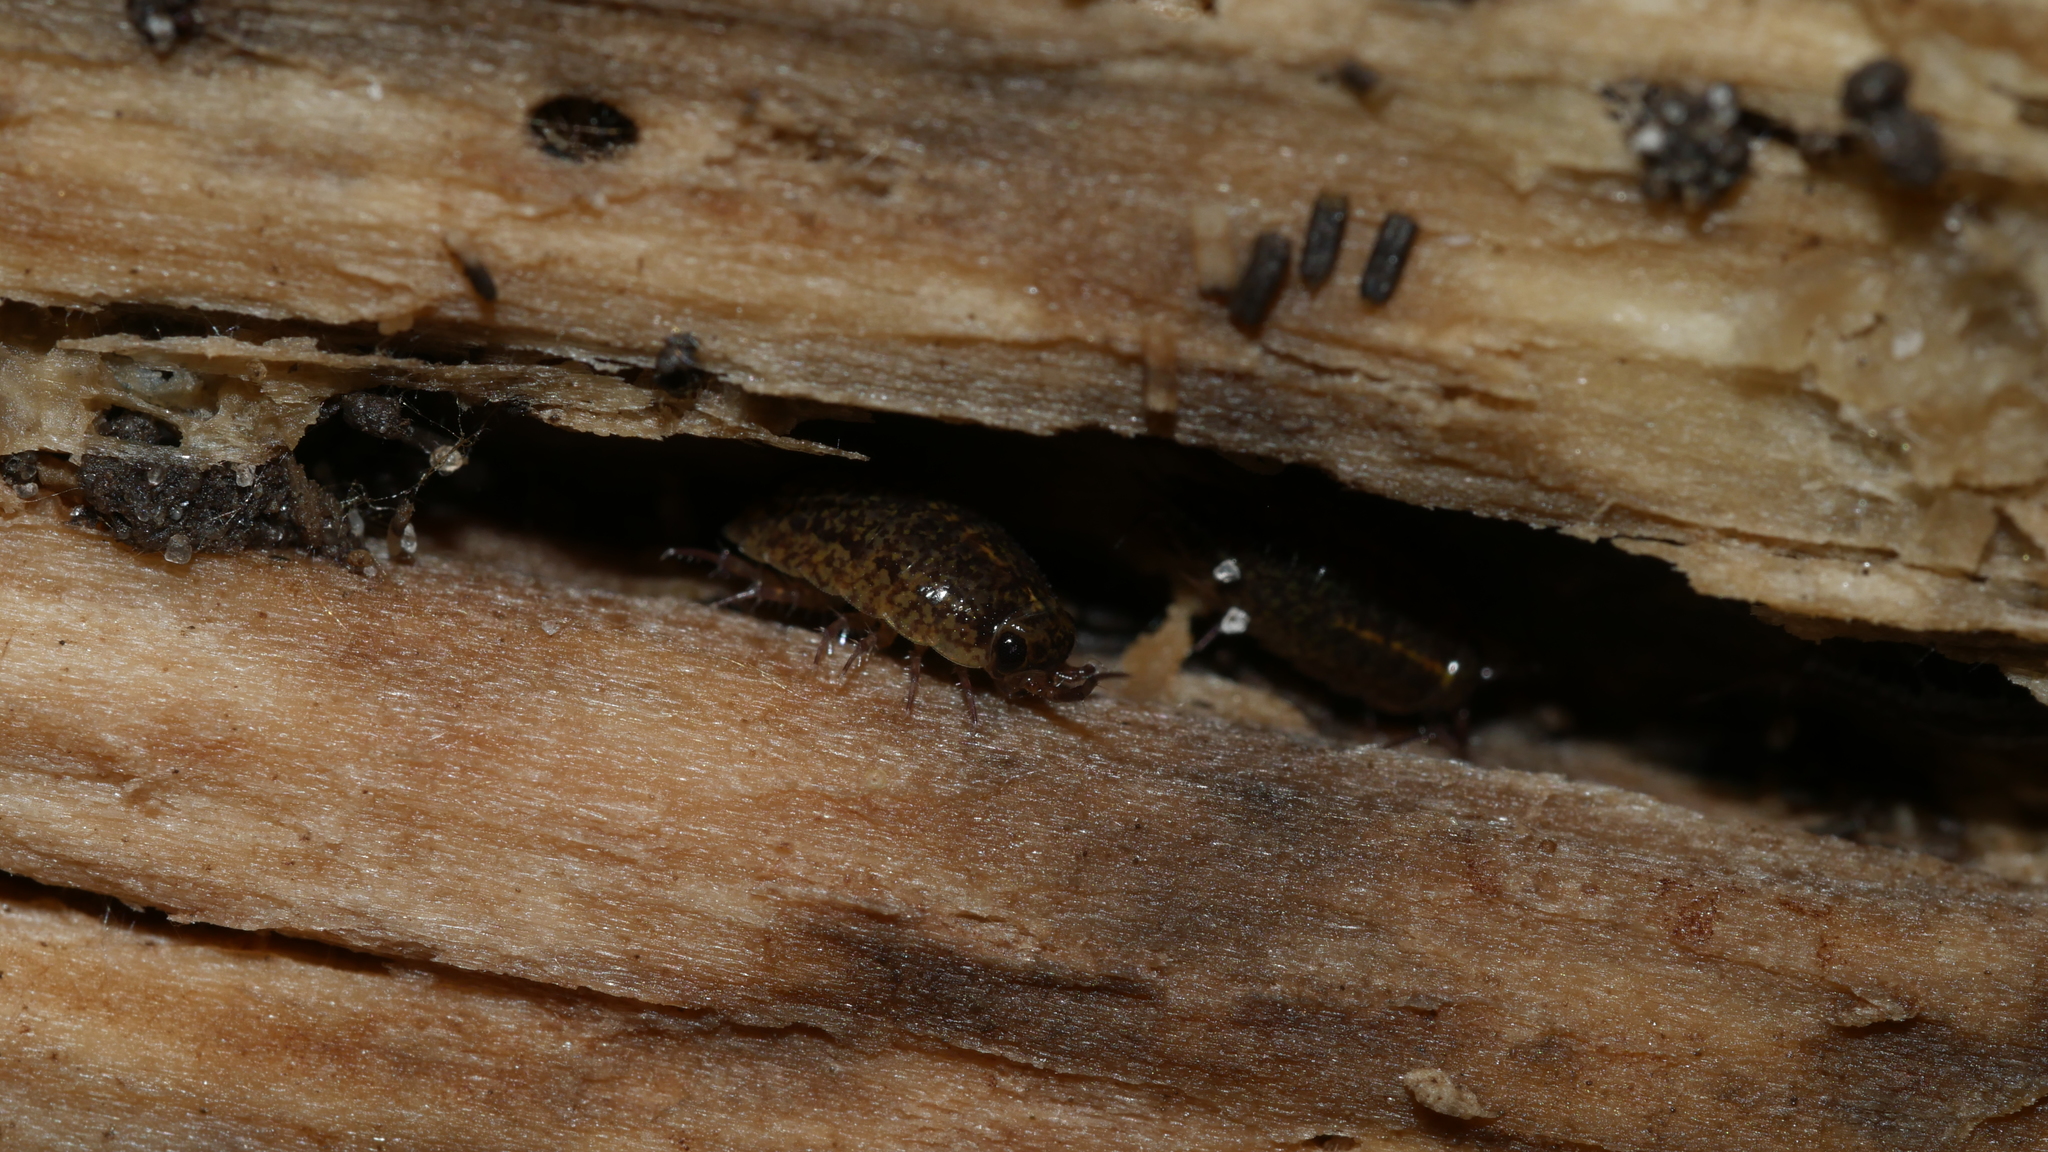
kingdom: Animalia
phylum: Arthropoda
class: Malacostraca
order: Isopoda
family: Ligiidae
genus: Ligidium
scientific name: Ligidium elrodii
